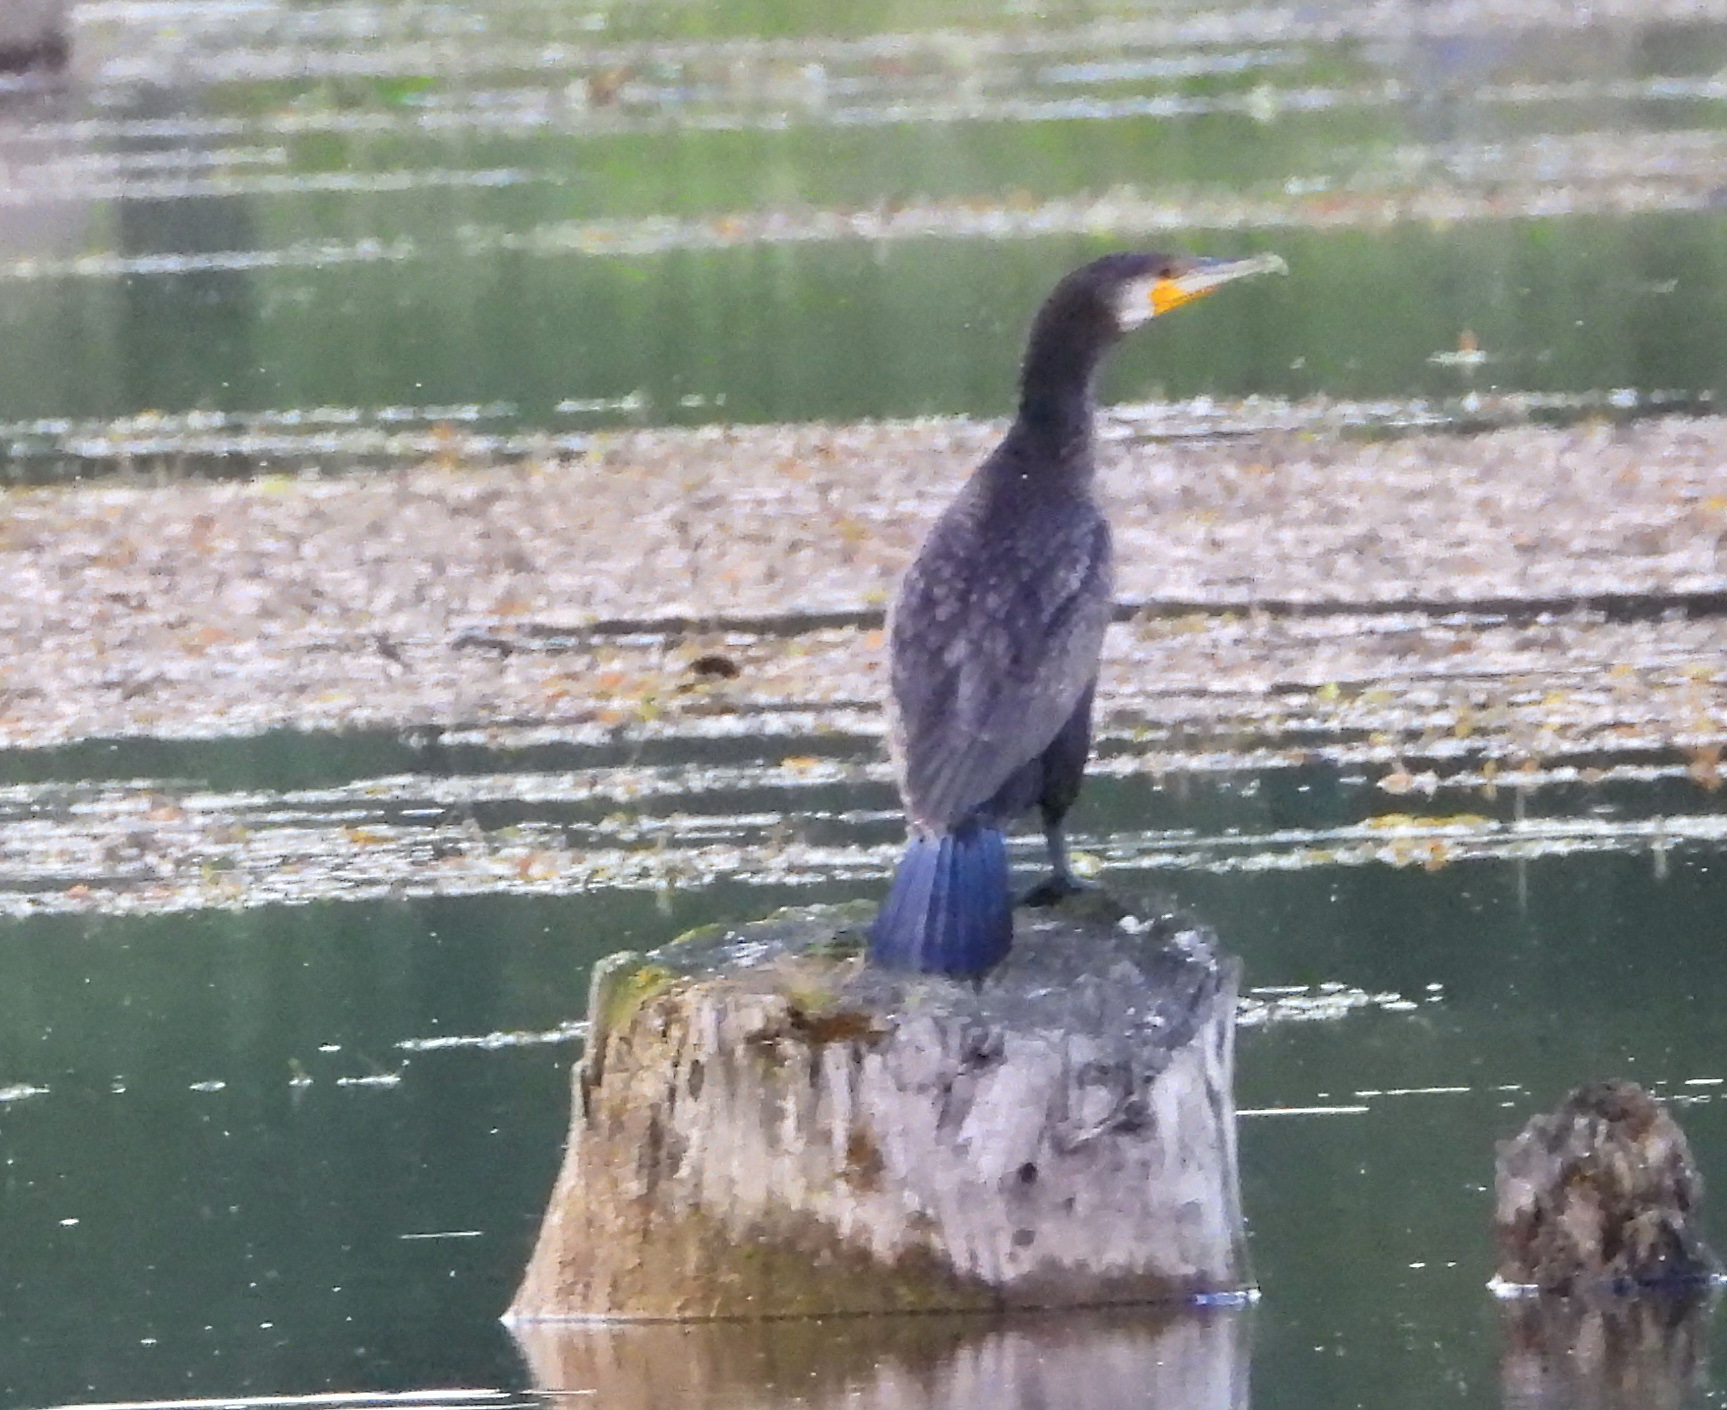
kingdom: Animalia
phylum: Chordata
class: Aves
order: Suliformes
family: Phalacrocoracidae
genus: Phalacrocorax
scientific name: Phalacrocorax carbo
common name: Great cormorant
